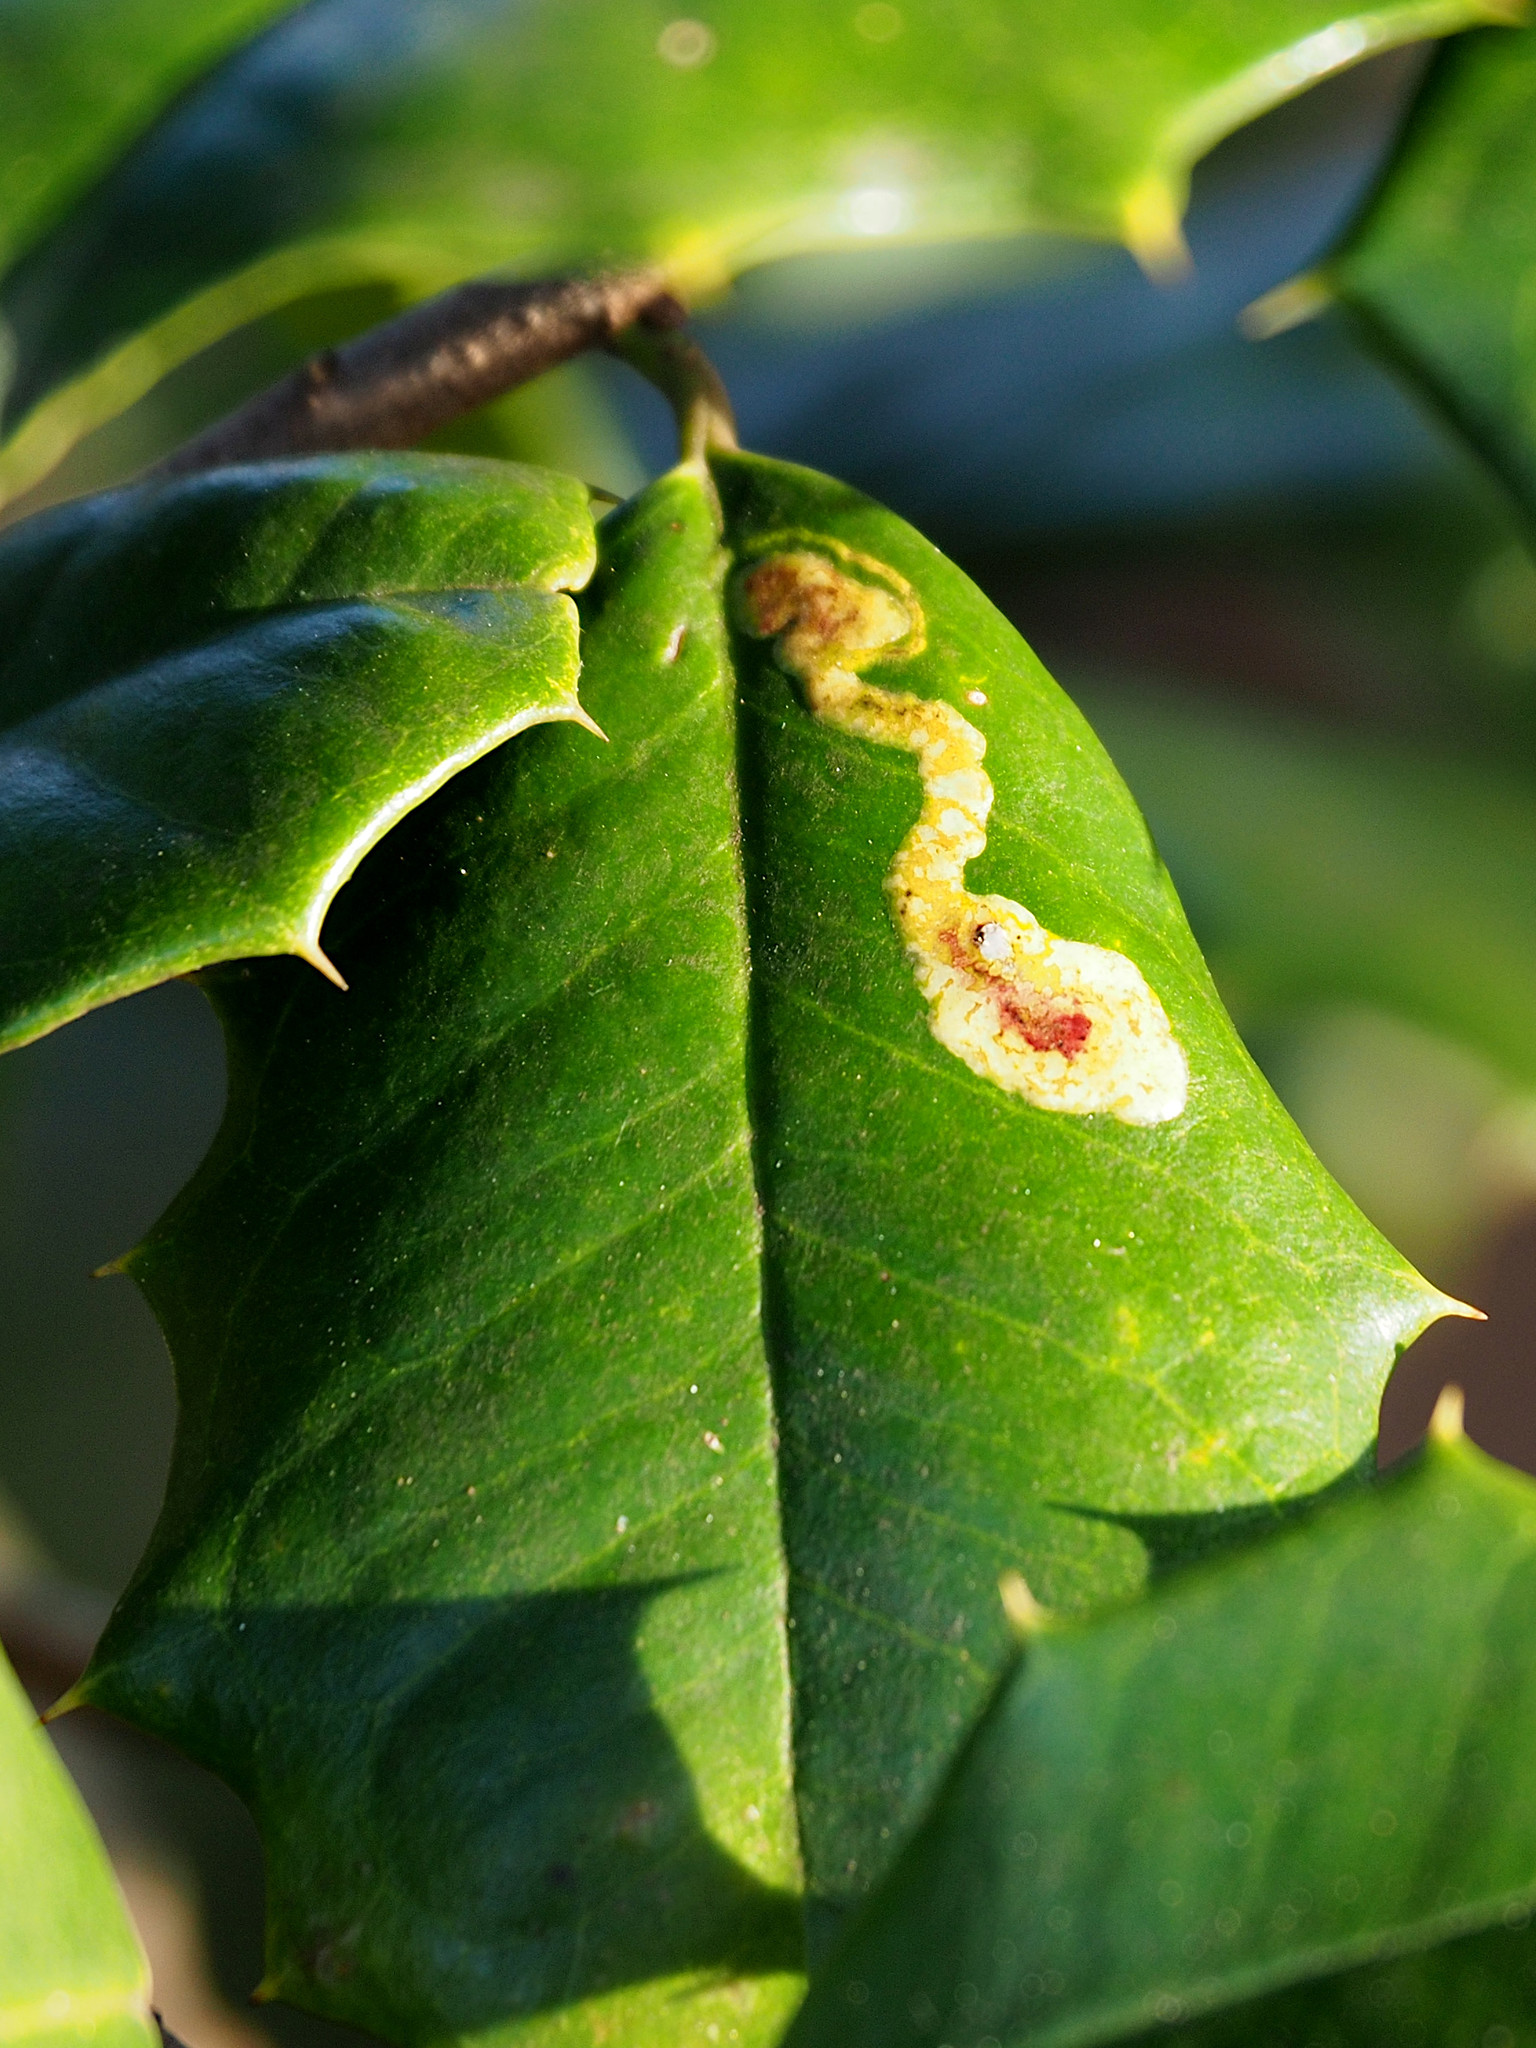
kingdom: Animalia
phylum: Arthropoda
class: Insecta
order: Diptera
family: Agromyzidae
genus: Phytomyza
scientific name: Phytomyza ilicicola
